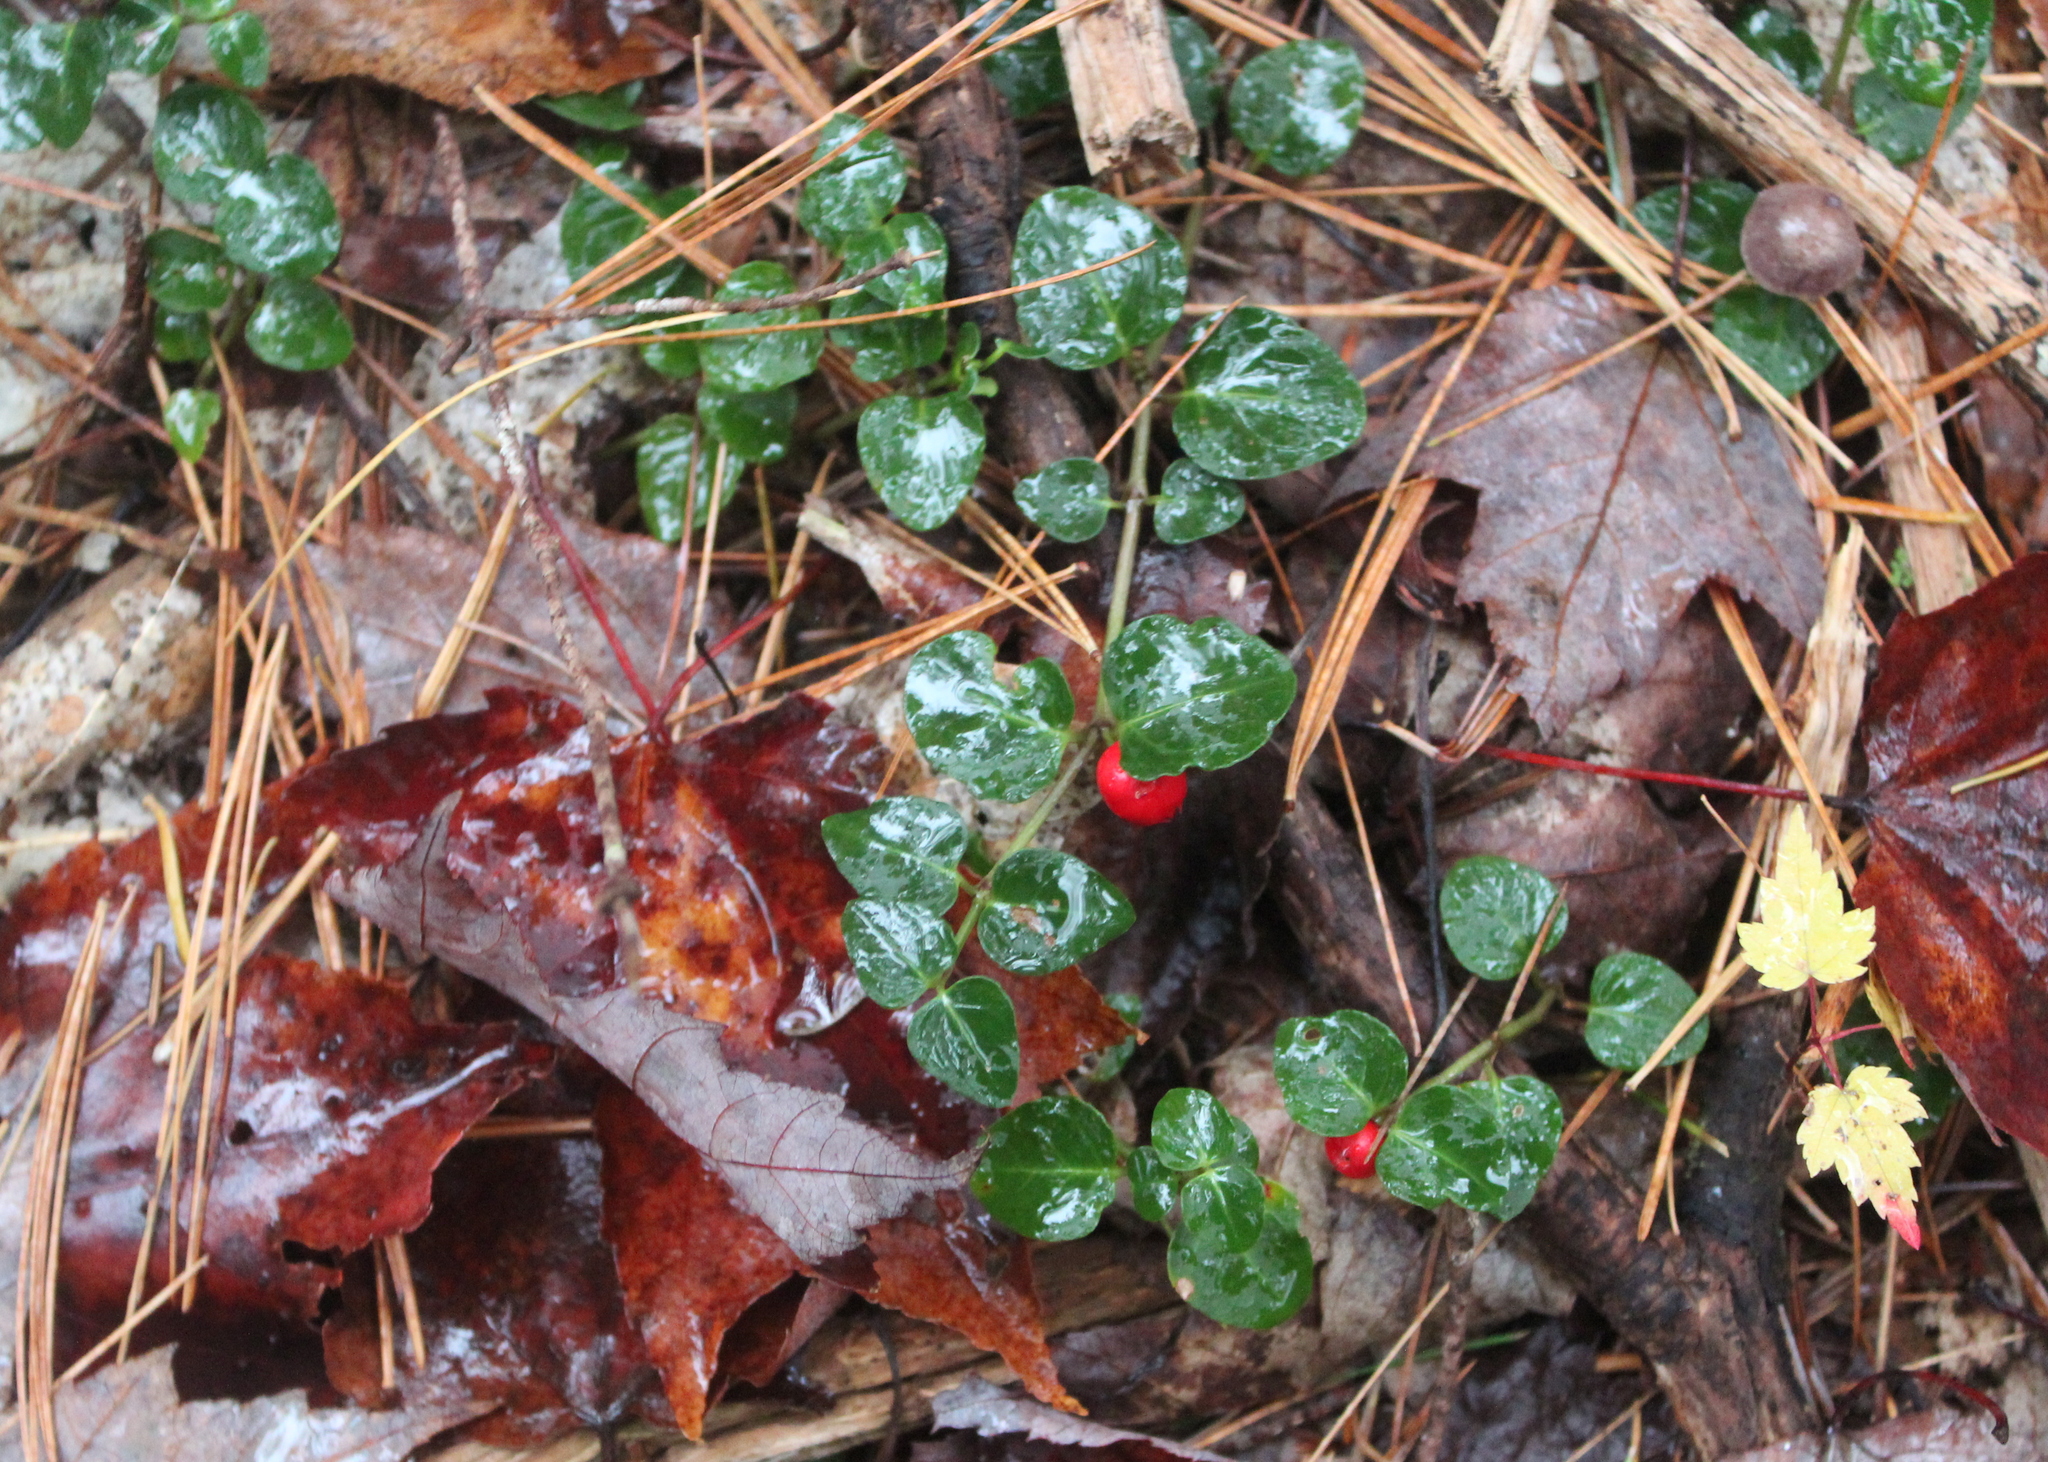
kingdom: Plantae
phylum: Tracheophyta
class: Magnoliopsida
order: Gentianales
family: Rubiaceae
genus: Mitchella
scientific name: Mitchella repens
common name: Partridge-berry
